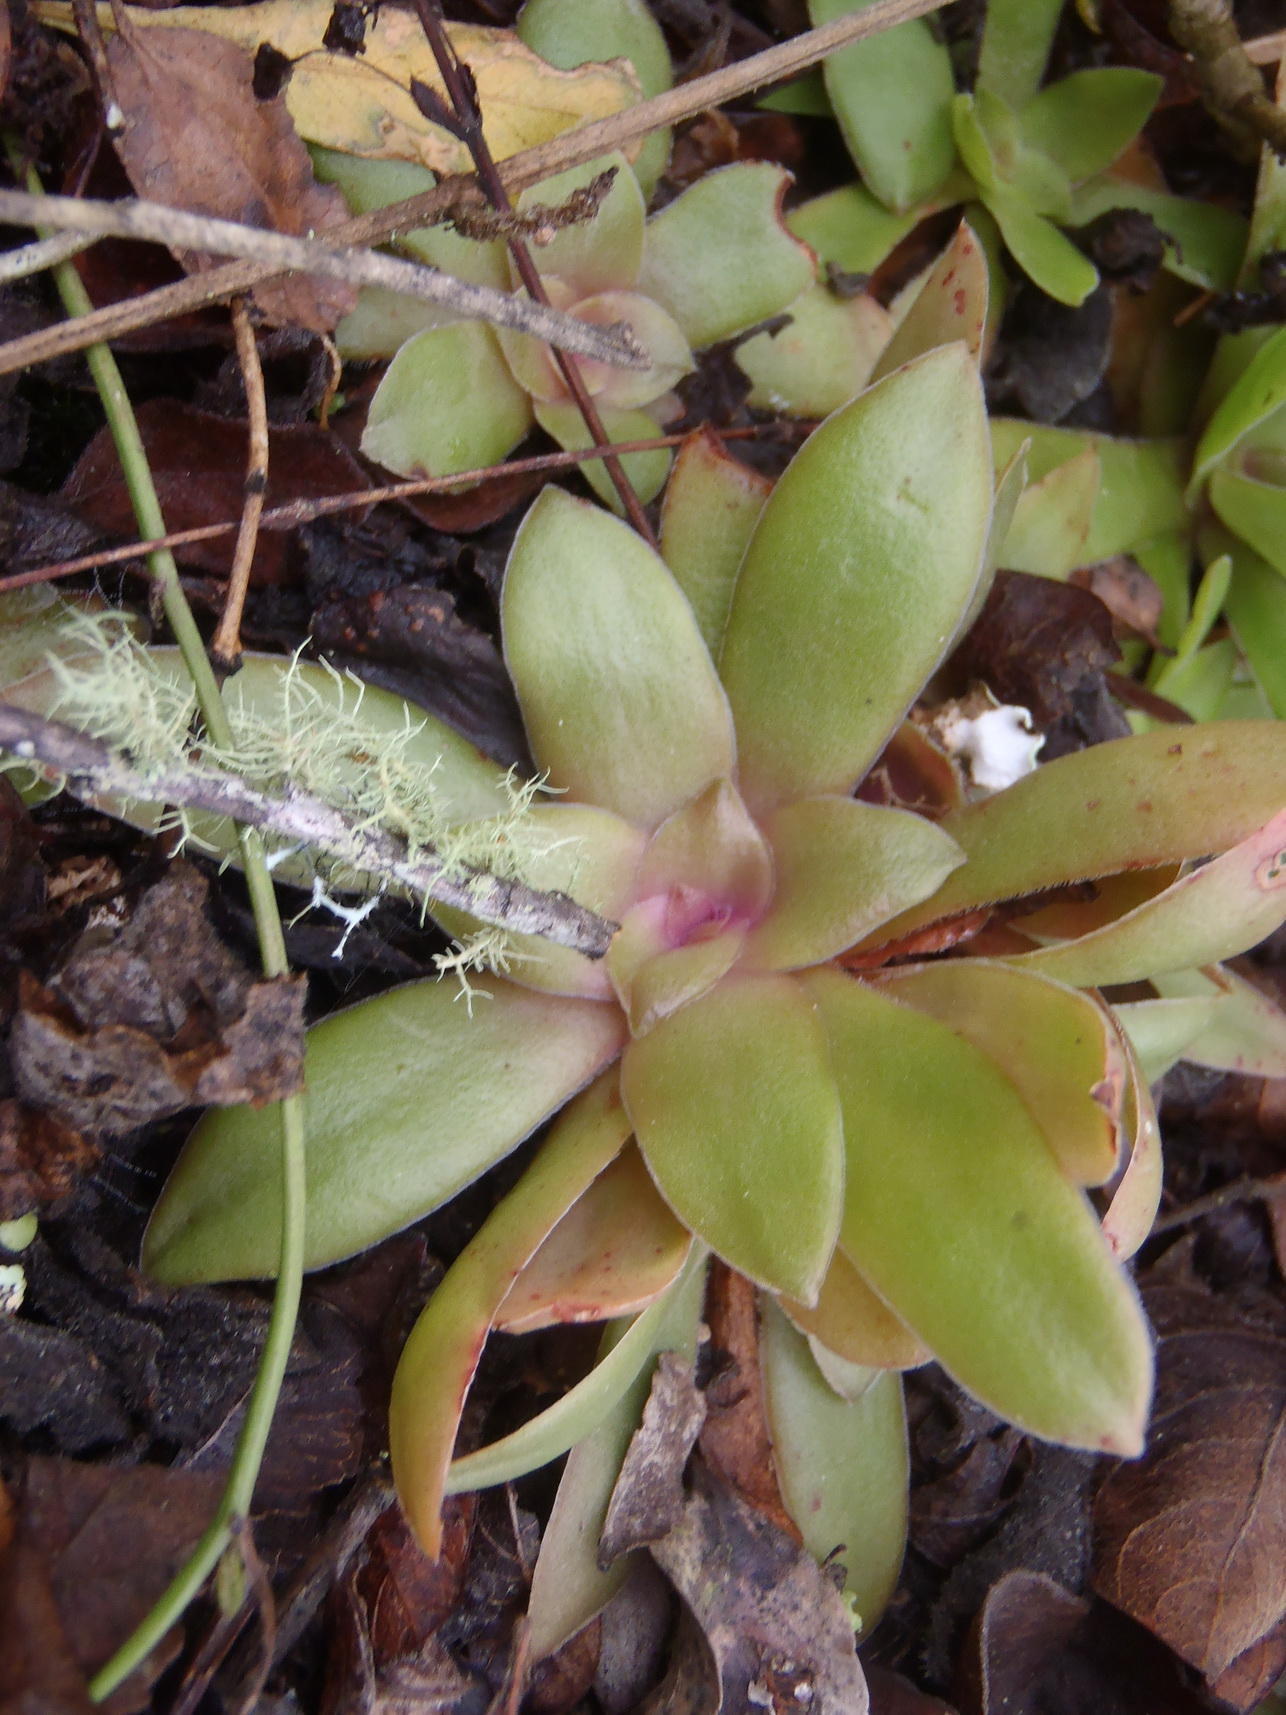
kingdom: Plantae
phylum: Tracheophyta
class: Magnoliopsida
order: Saxifragales
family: Crassulaceae
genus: Crassula
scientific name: Crassula orbicularis
